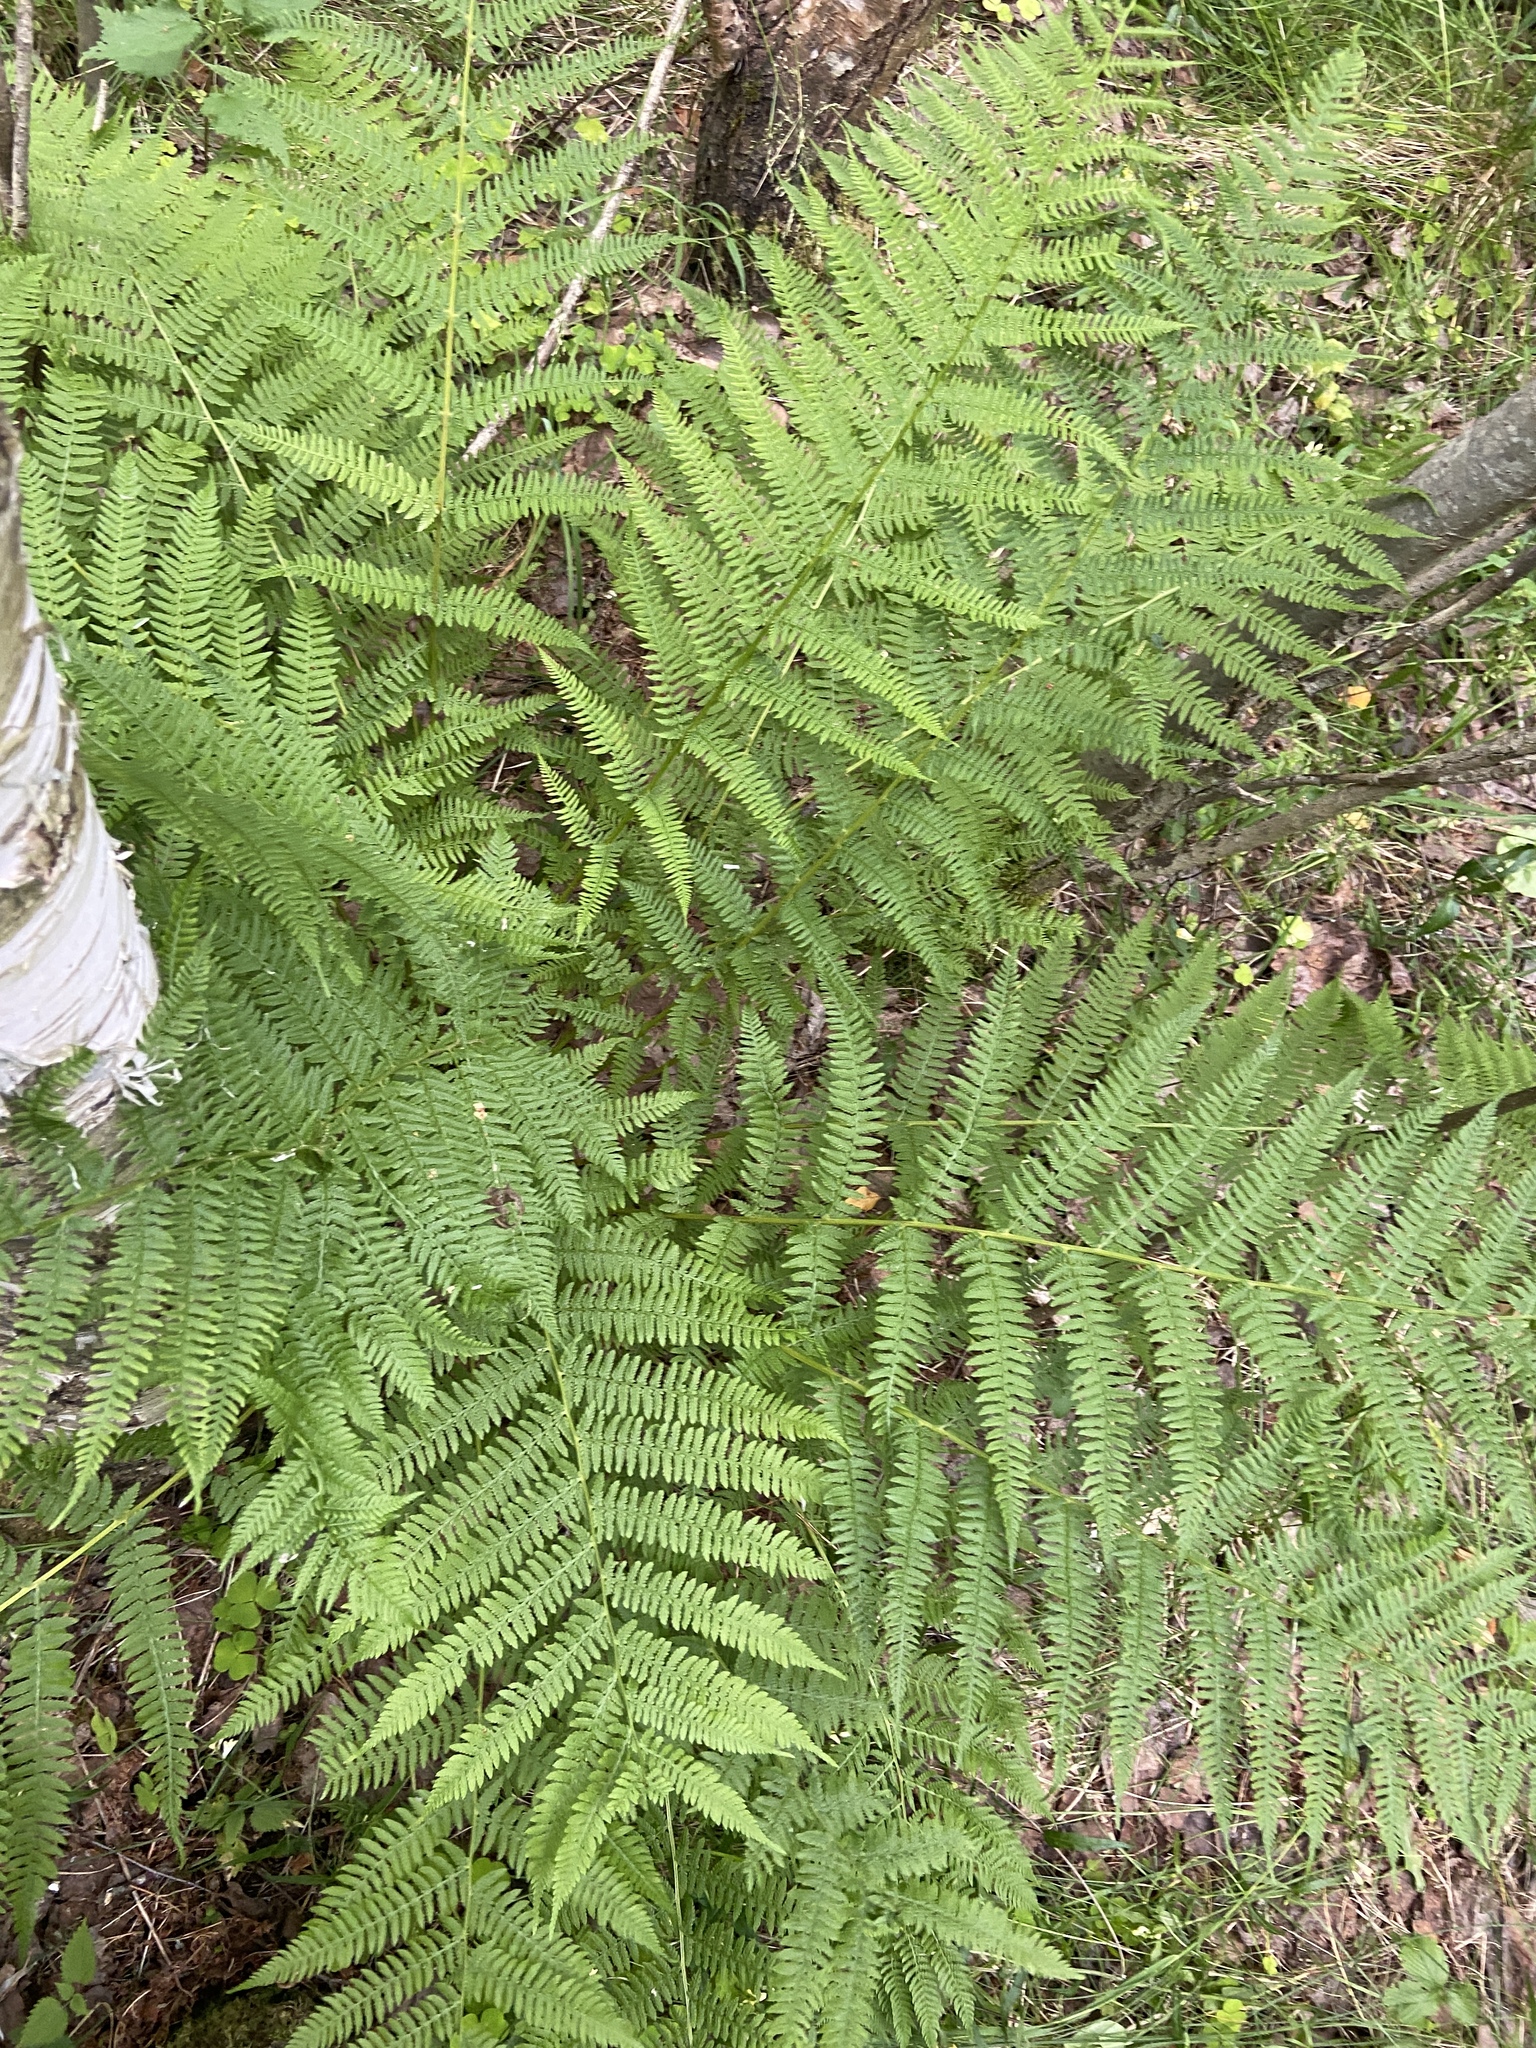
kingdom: Plantae
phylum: Tracheophyta
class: Polypodiopsida
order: Polypodiales
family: Athyriaceae
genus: Athyrium
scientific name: Athyrium filix-femina
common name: Lady fern
